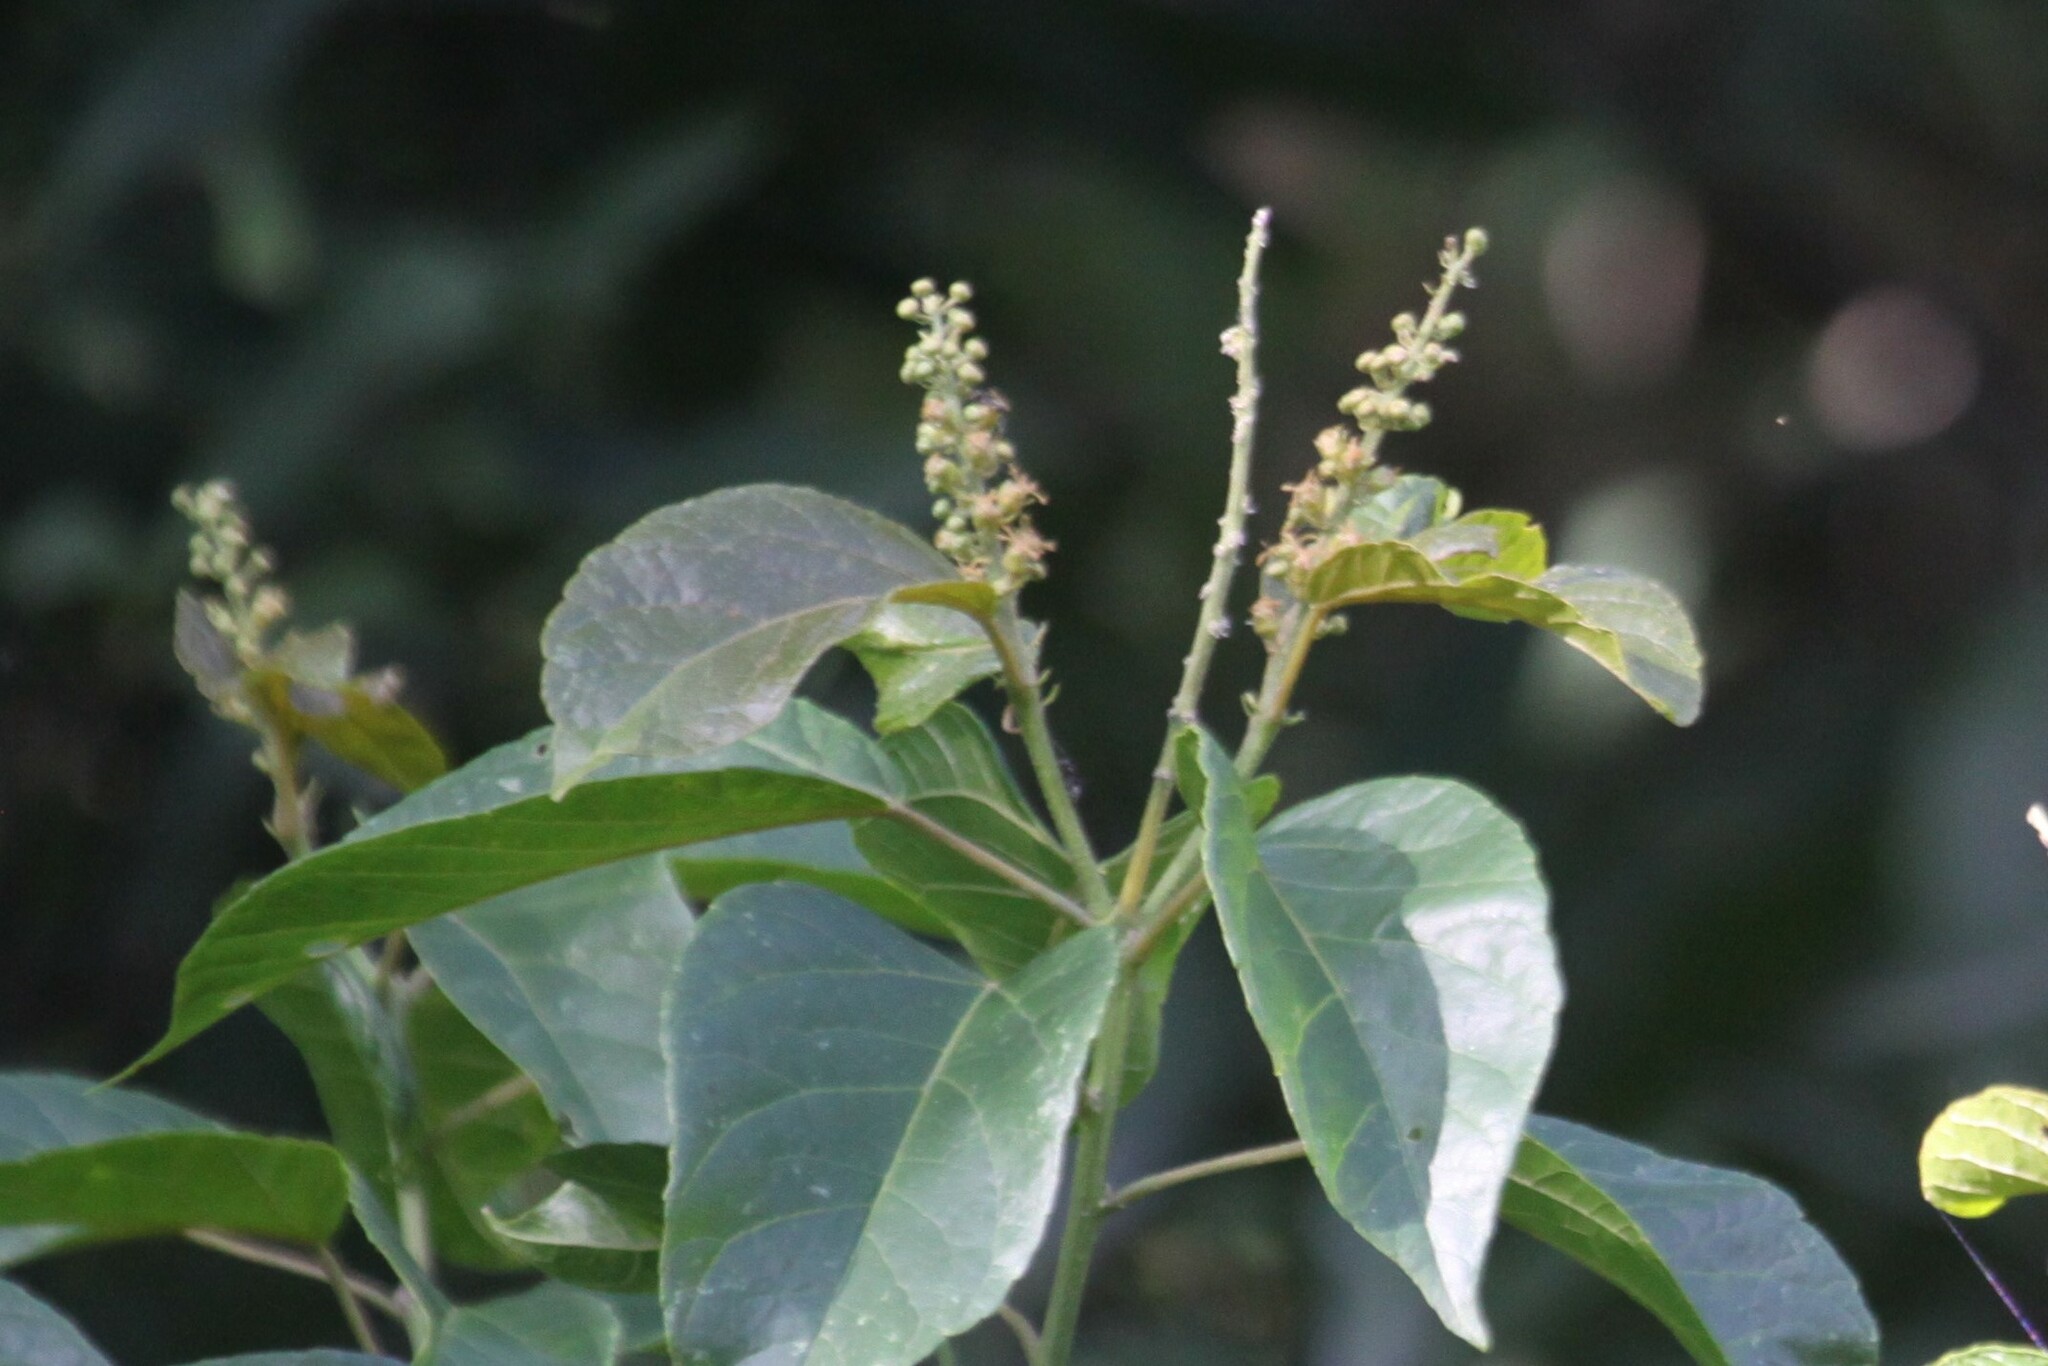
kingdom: Plantae
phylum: Tracheophyta
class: Magnoliopsida
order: Malpighiales
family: Euphorbiaceae
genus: Croton
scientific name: Croton sylvaticus
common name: Forest croton
